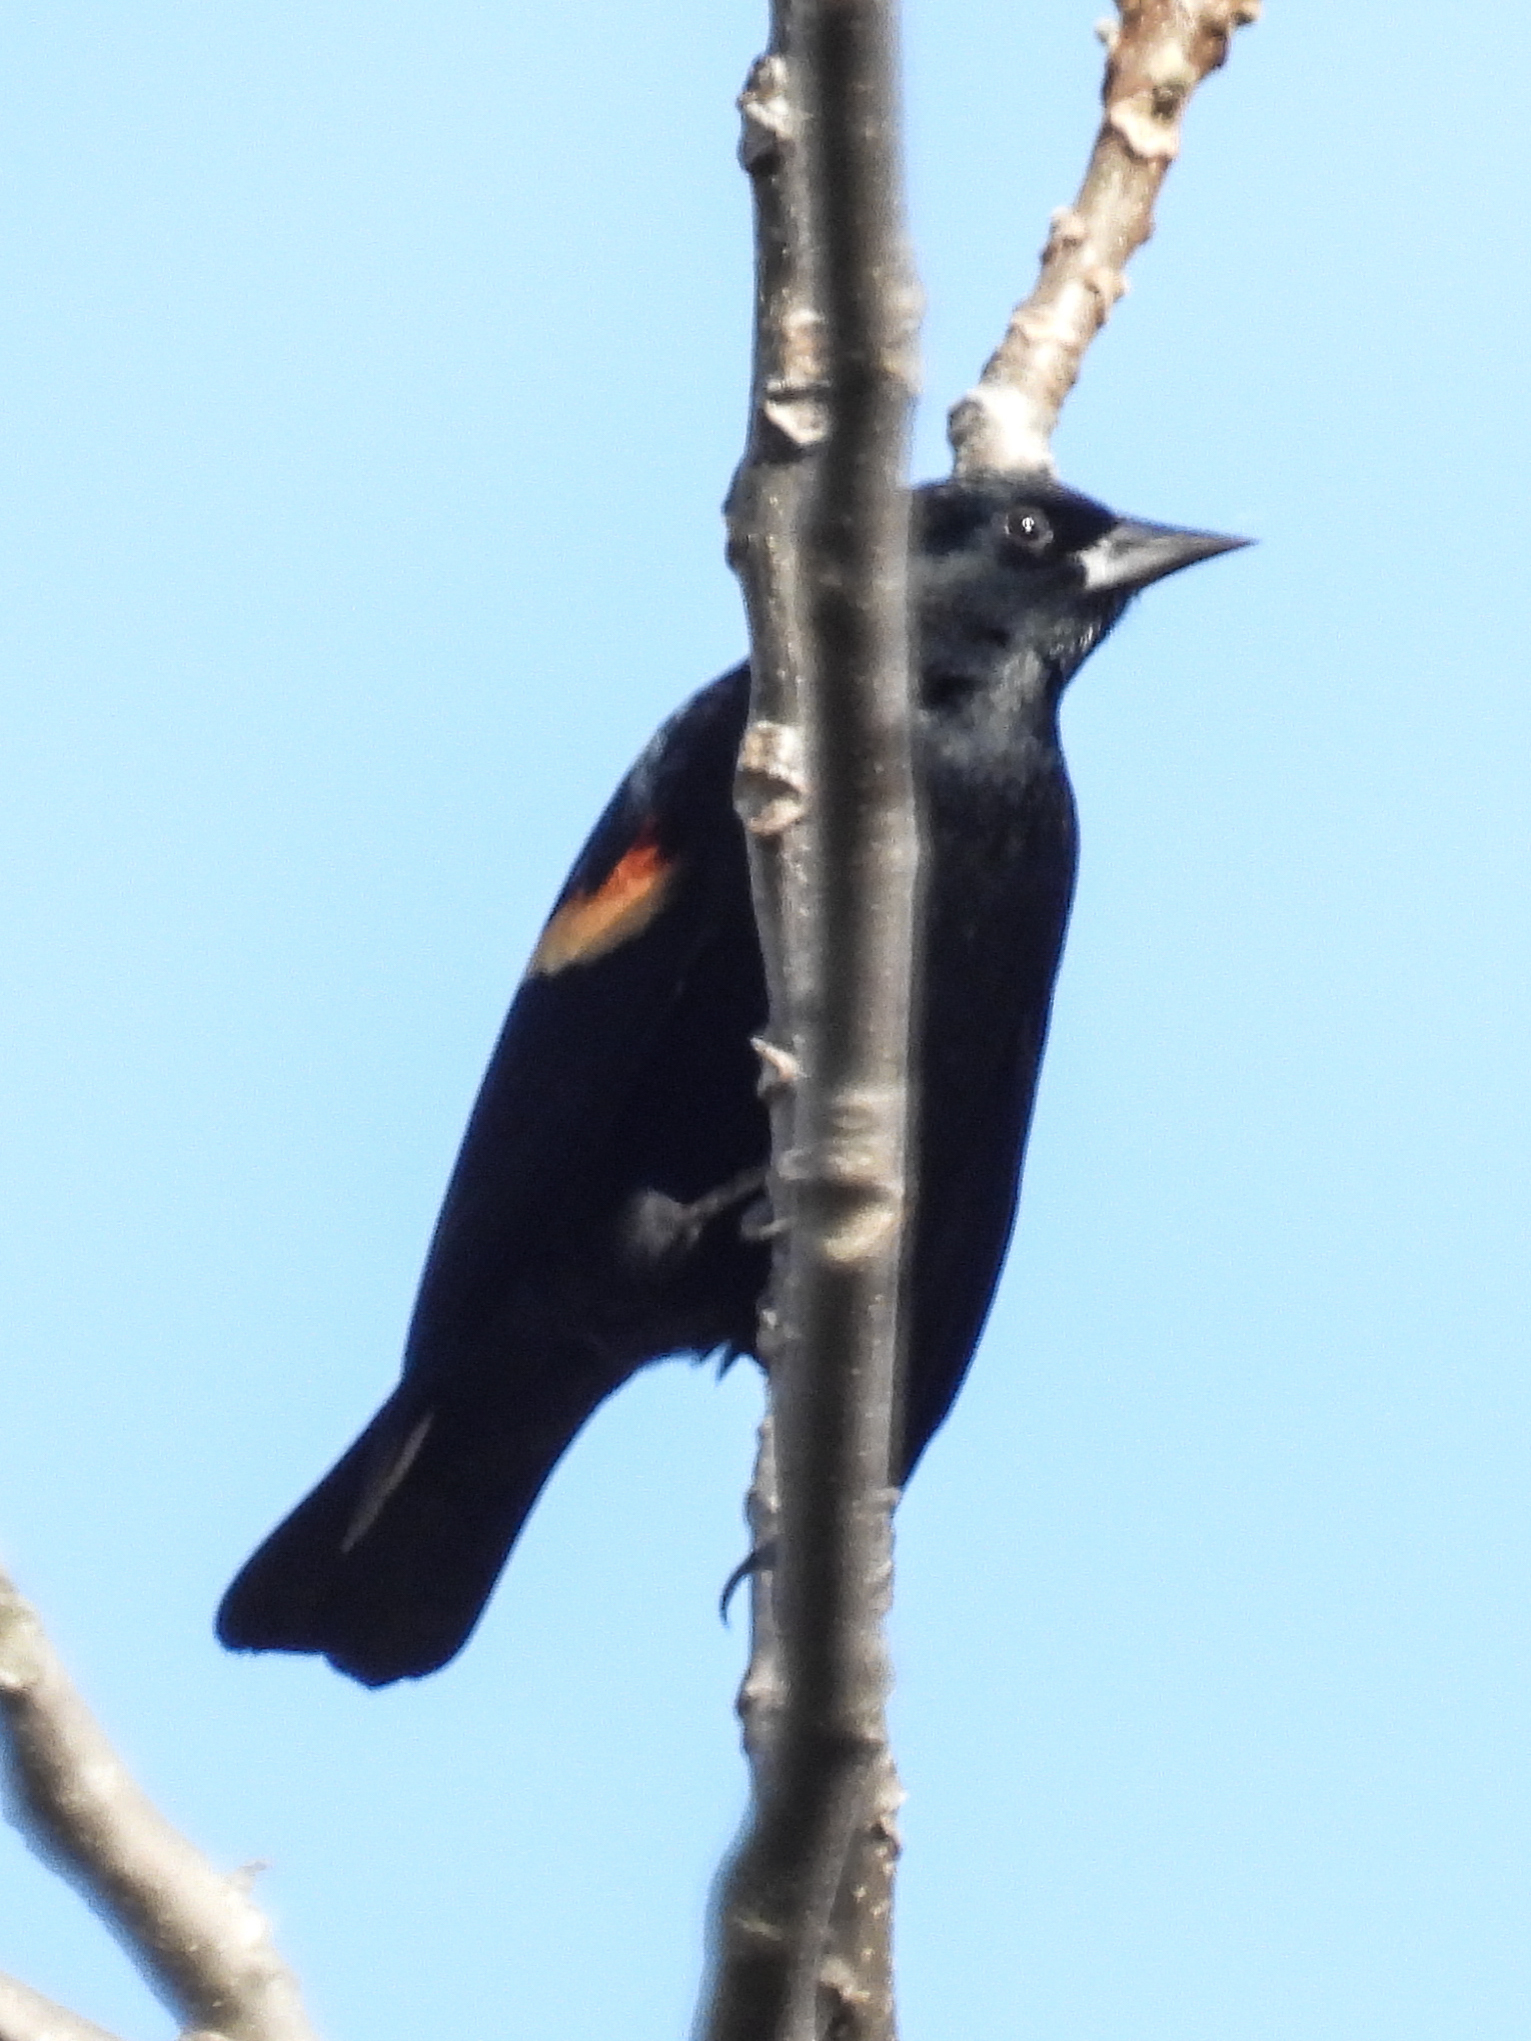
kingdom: Animalia
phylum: Chordata
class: Aves
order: Passeriformes
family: Icteridae
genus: Agelaius
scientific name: Agelaius phoeniceus
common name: Red-winged blackbird
